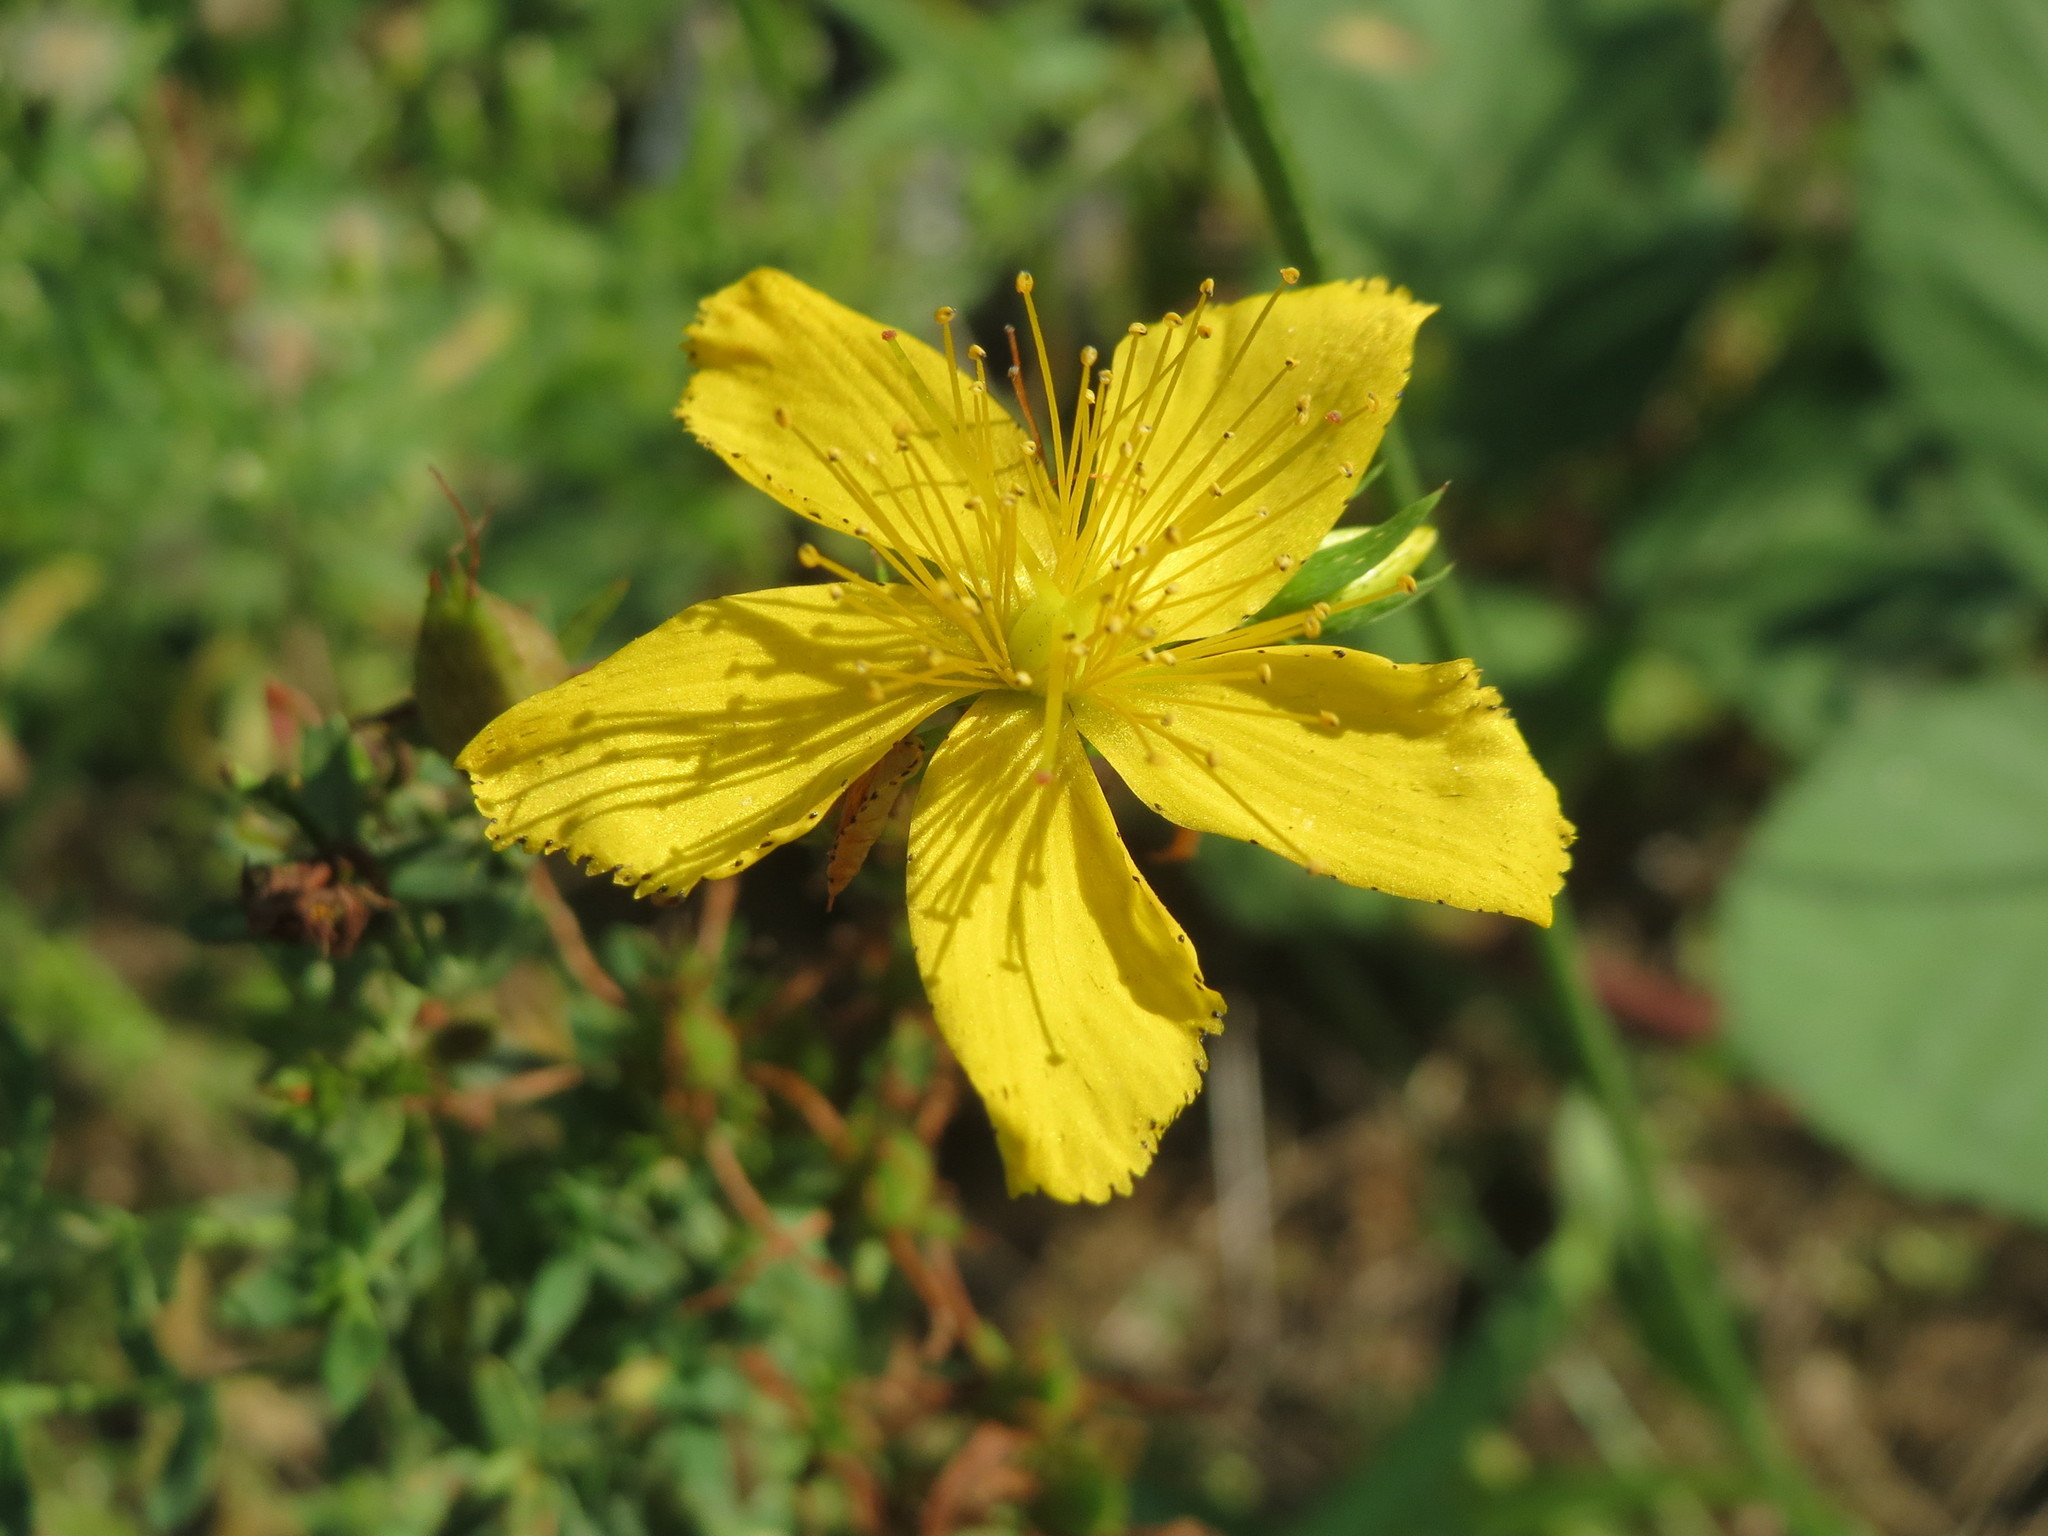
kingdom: Plantae
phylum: Tracheophyta
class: Magnoliopsida
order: Malpighiales
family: Hypericaceae
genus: Hypericum
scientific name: Hypericum perforatum
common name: Common st. johnswort
